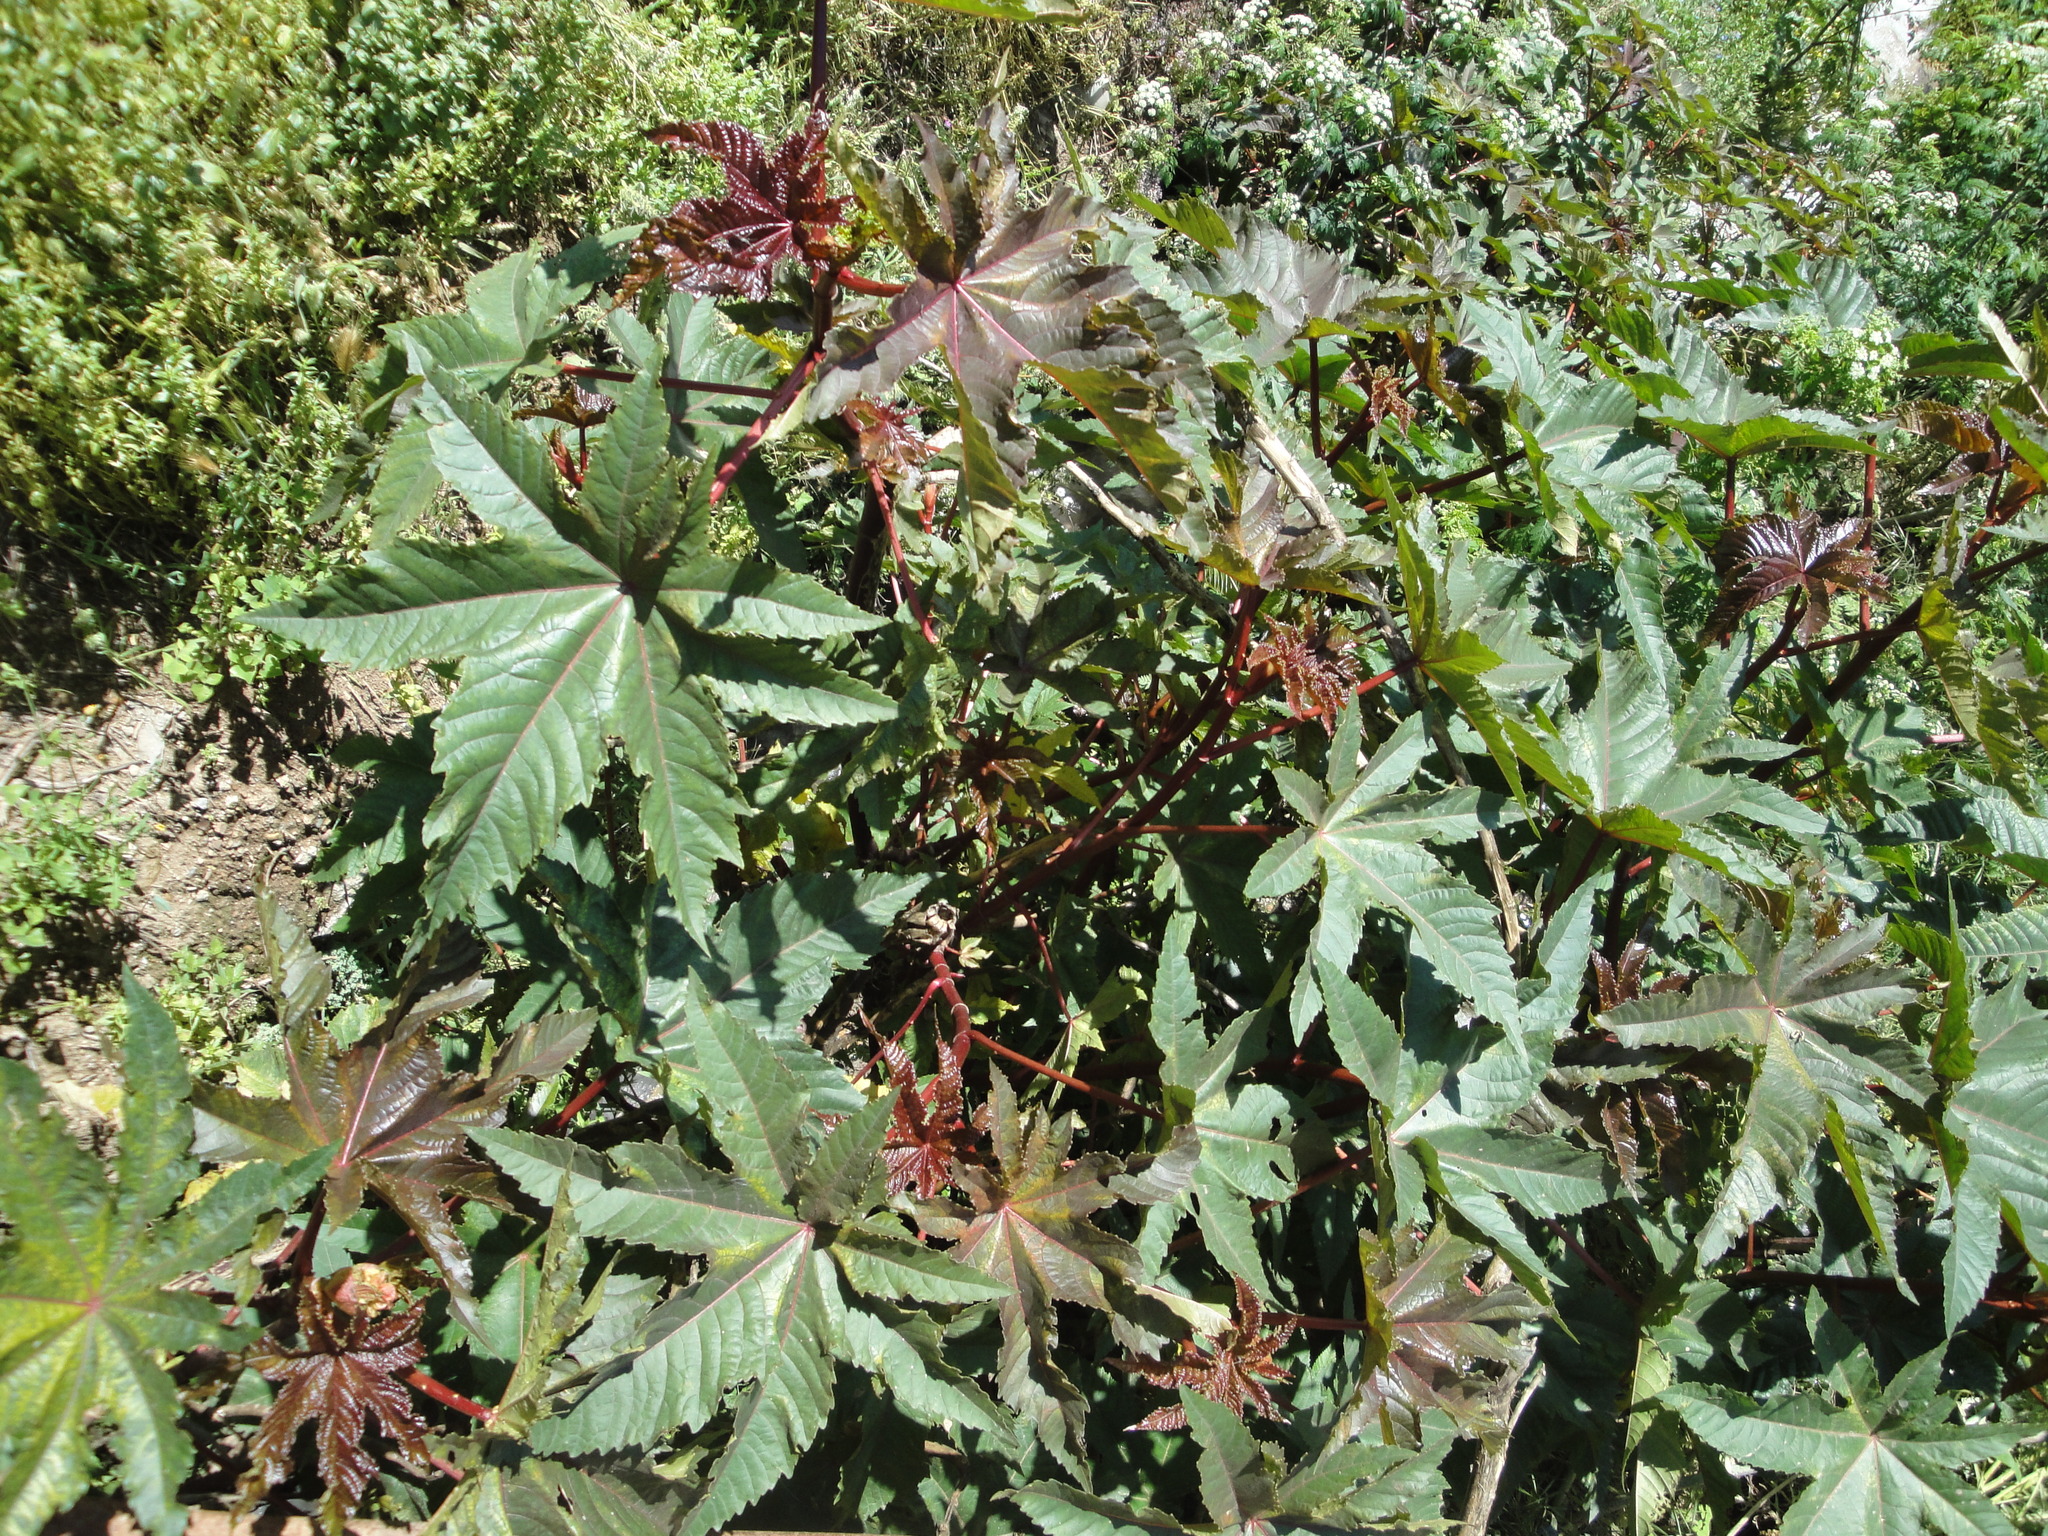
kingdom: Plantae
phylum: Tracheophyta
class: Magnoliopsida
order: Malpighiales
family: Euphorbiaceae
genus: Ricinus
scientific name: Ricinus communis
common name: Castor-oil-plant
